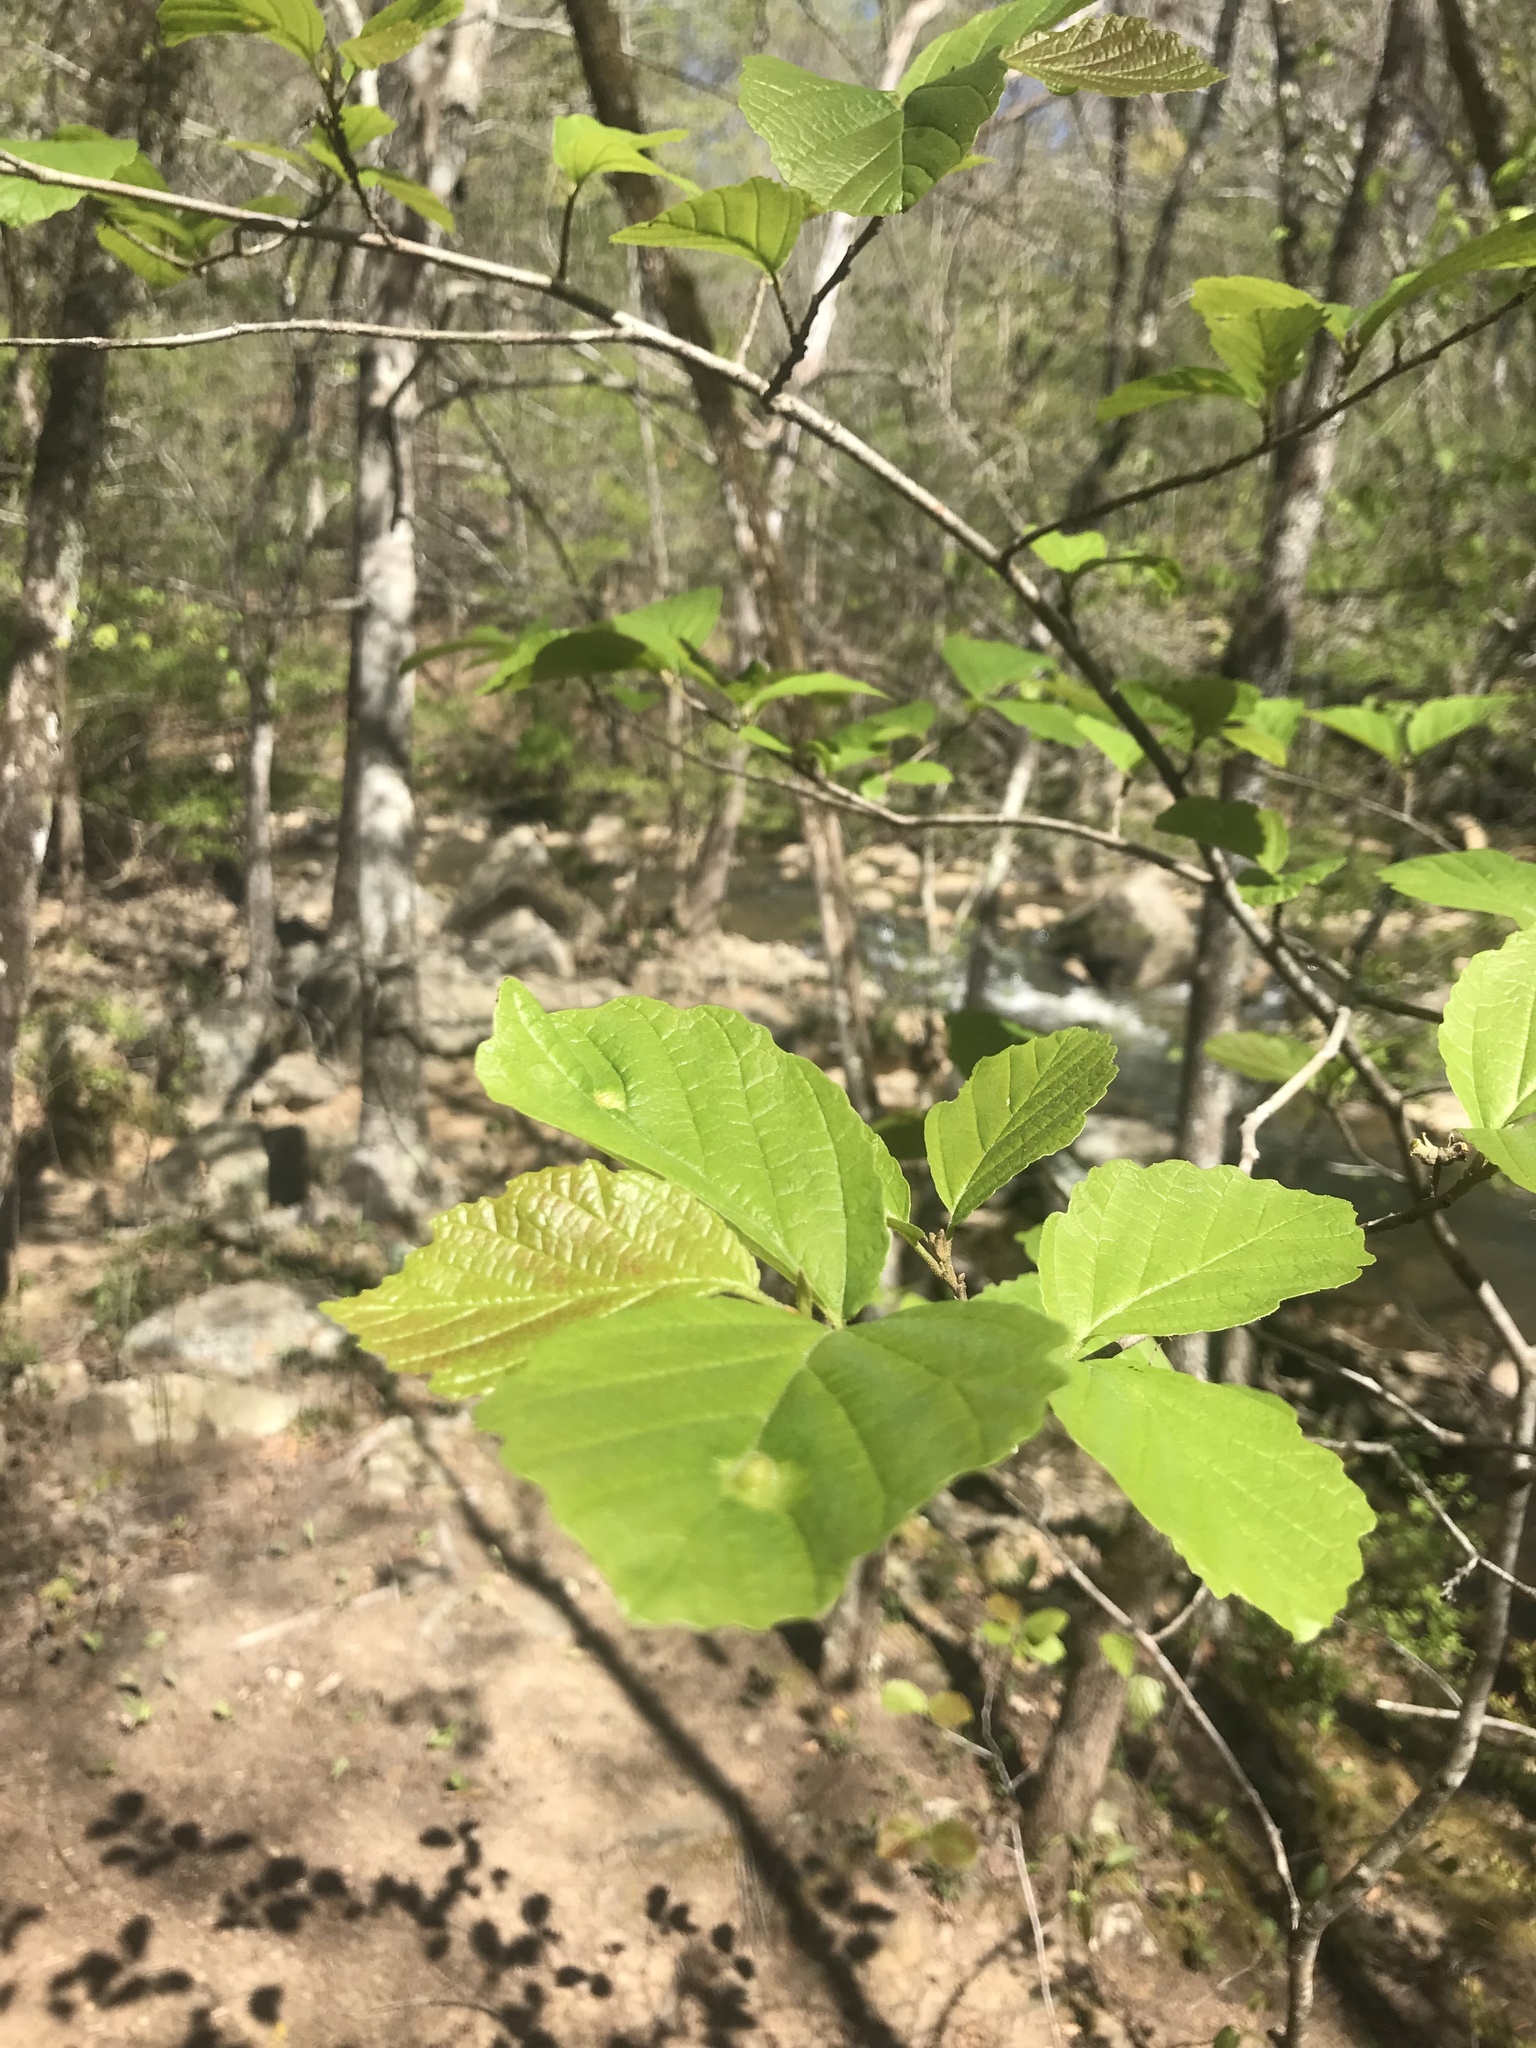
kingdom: Plantae
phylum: Tracheophyta
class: Magnoliopsida
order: Saxifragales
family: Hamamelidaceae
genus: Hamamelis
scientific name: Hamamelis virginiana
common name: Witch-hazel
